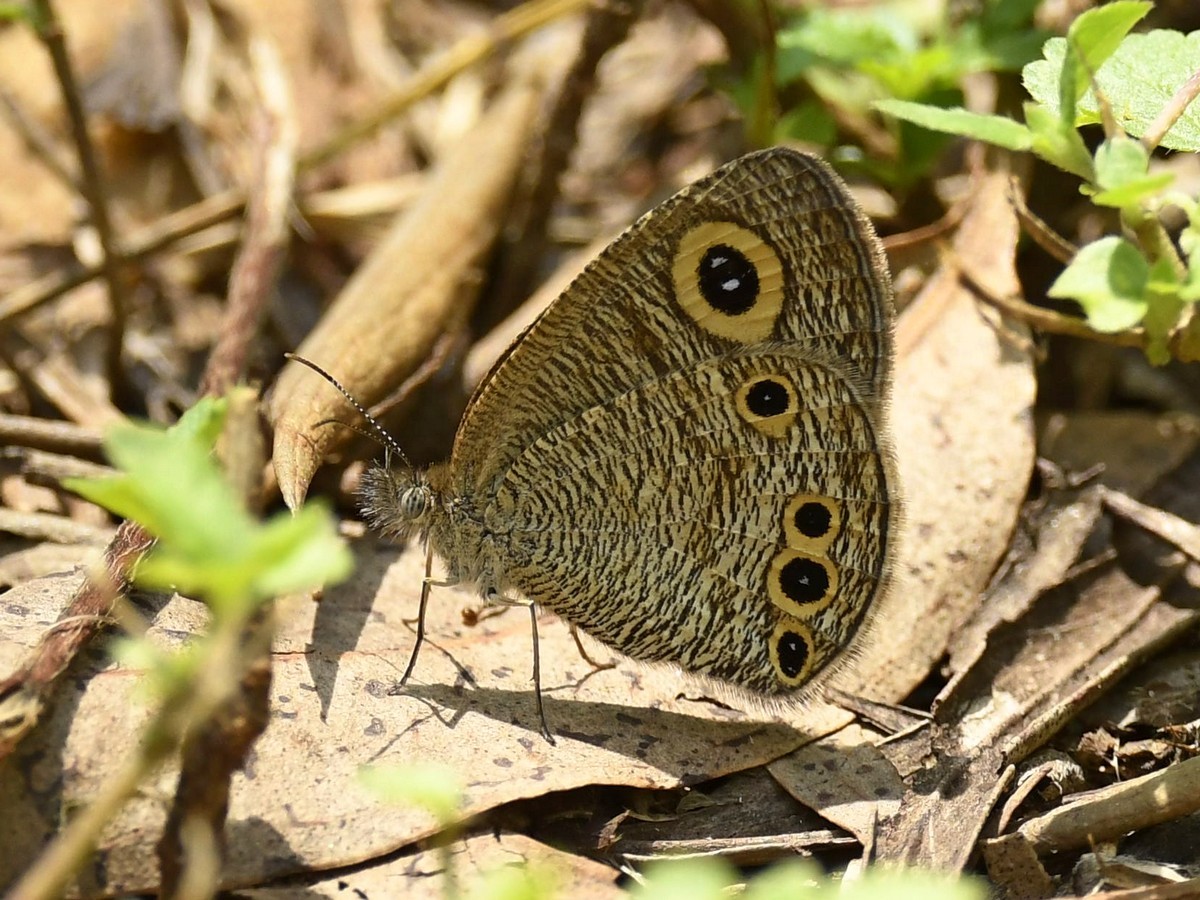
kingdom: Animalia
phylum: Arthropoda
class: Insecta
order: Lepidoptera
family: Nymphalidae
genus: Ypthima
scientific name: Ypthima huebneri
